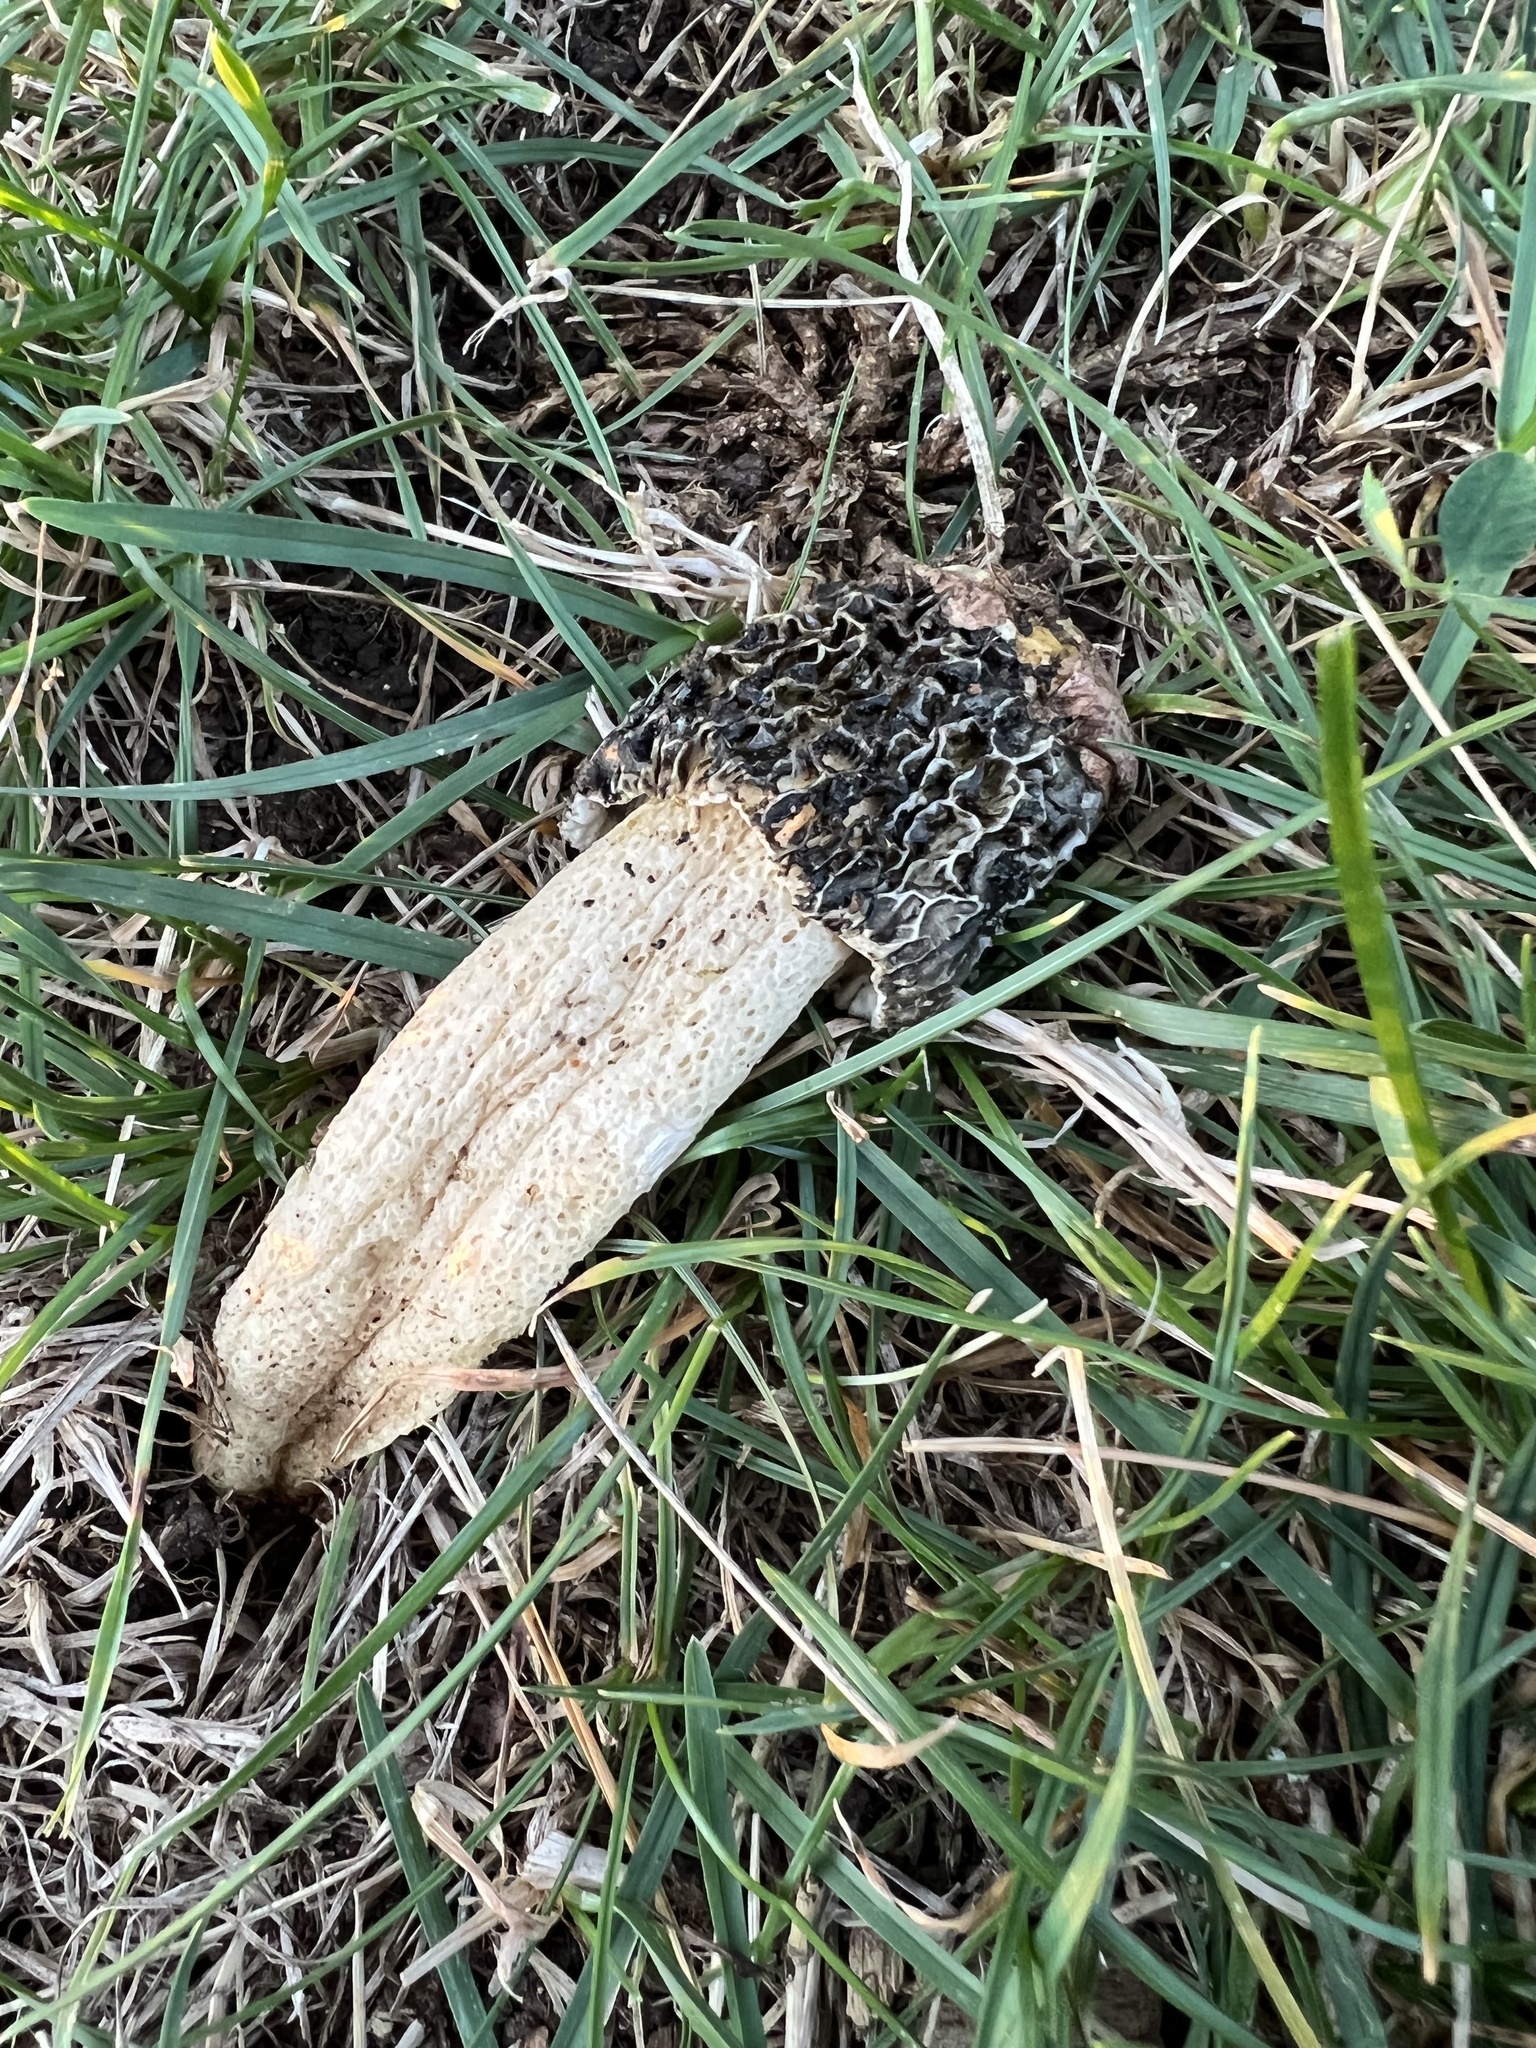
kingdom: Fungi
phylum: Basidiomycota
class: Agaricomycetes
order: Phallales
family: Phallaceae
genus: Phallus
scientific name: Phallus hadriani
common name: Sand stinkhorn
